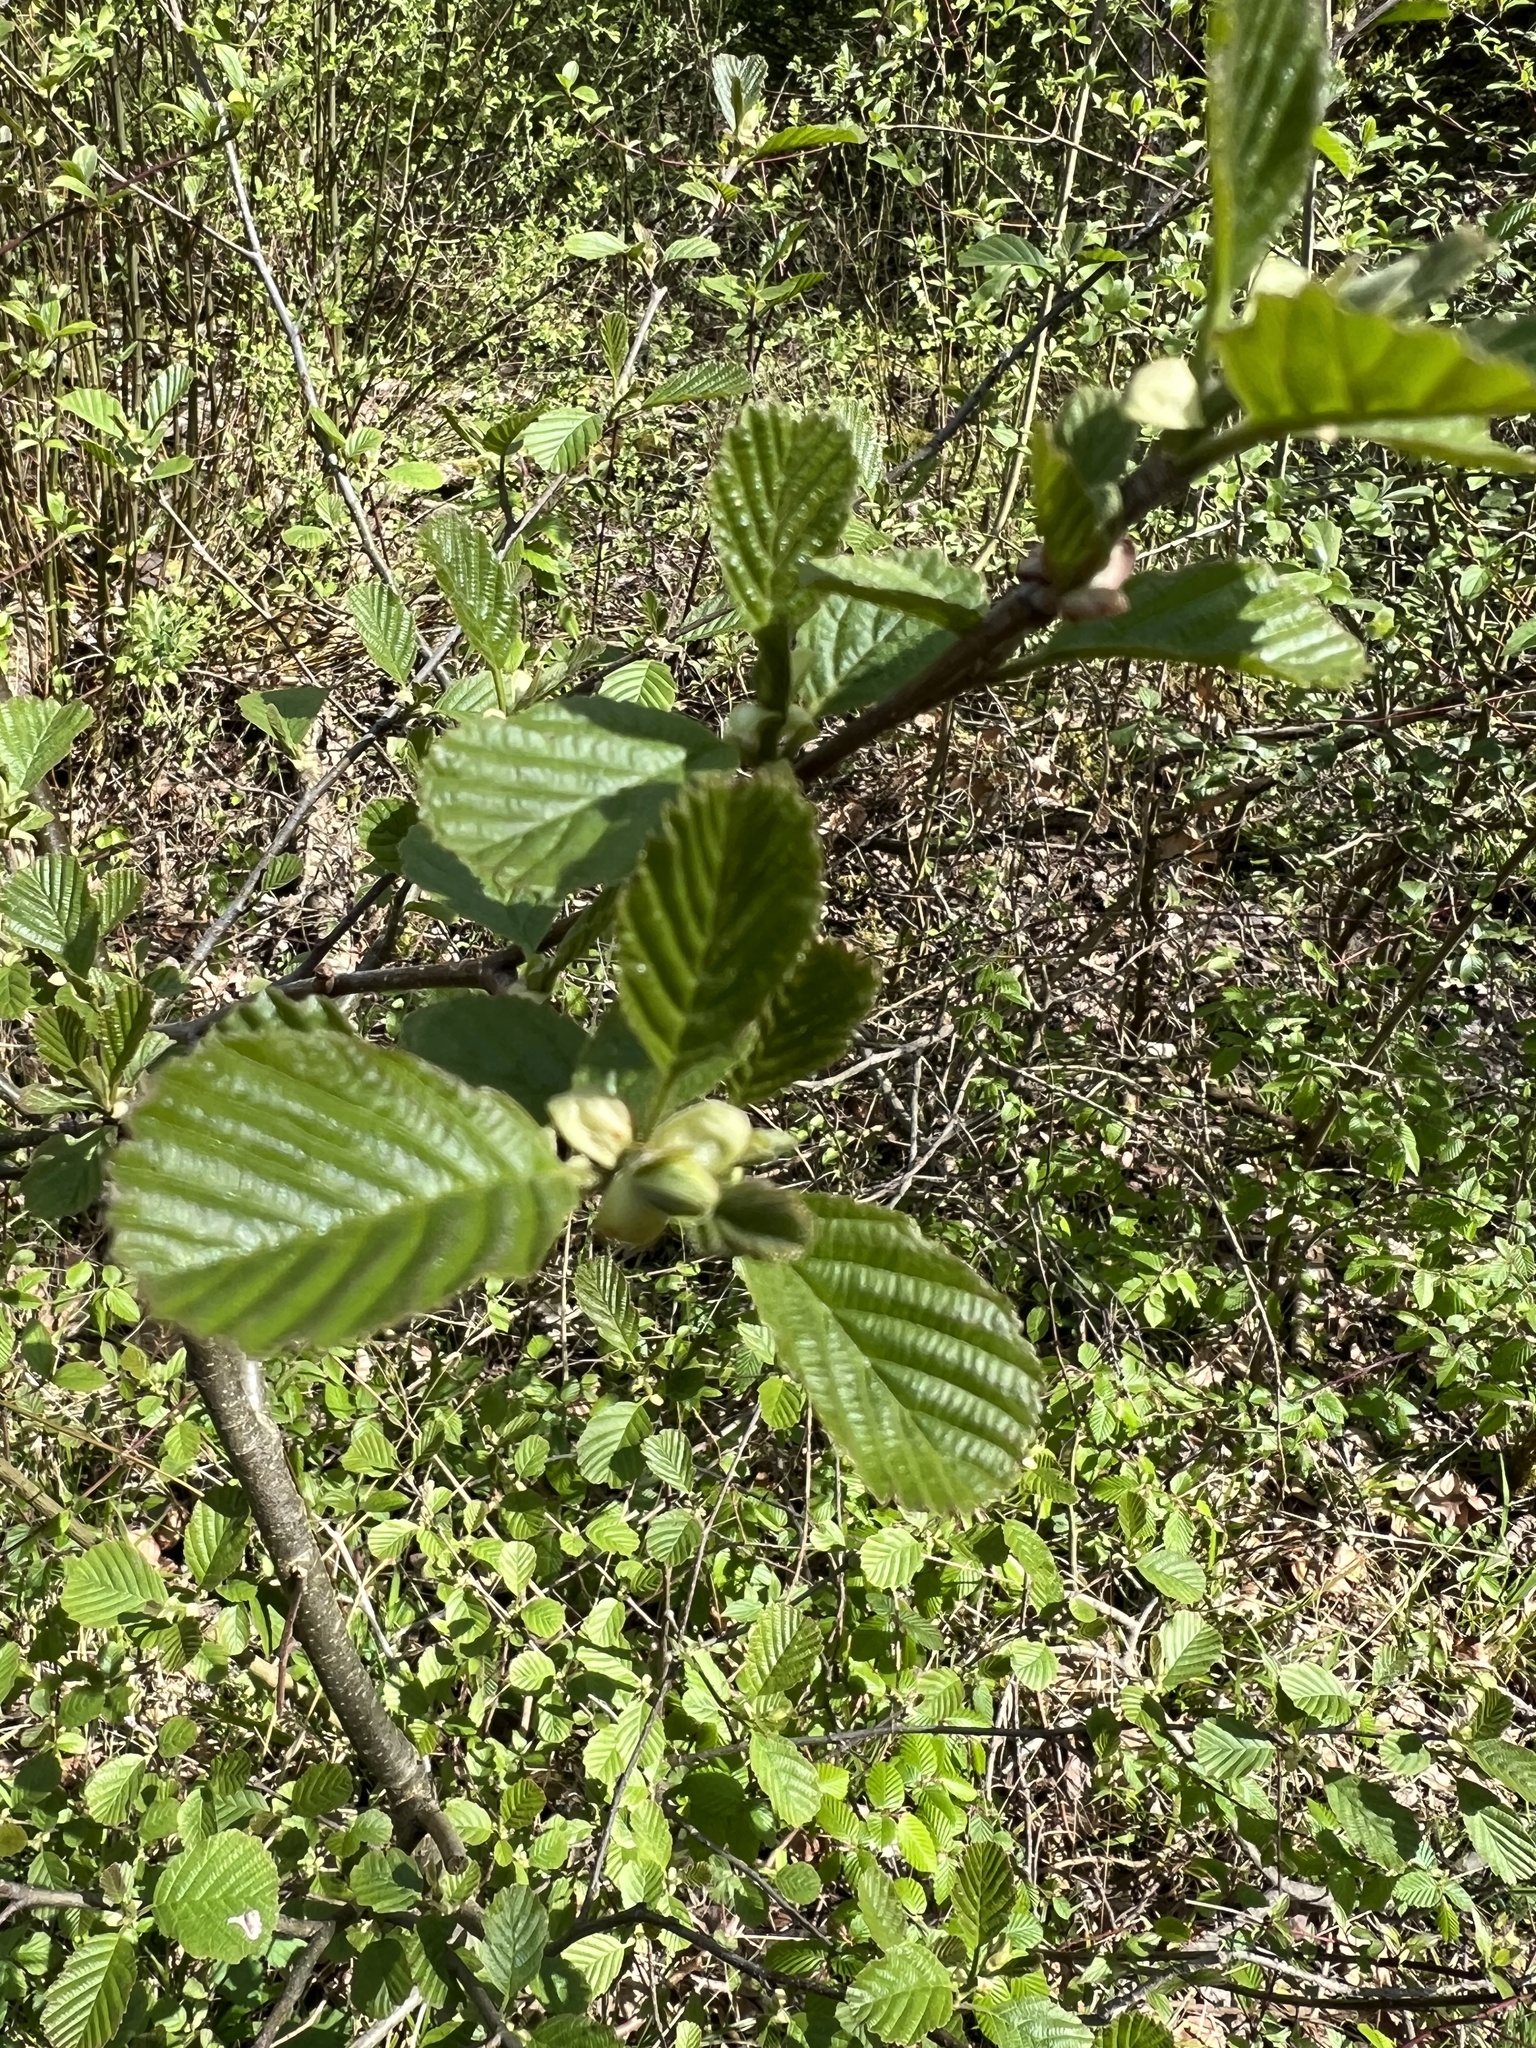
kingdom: Plantae
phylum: Tracheophyta
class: Magnoliopsida
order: Fagales
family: Betulaceae
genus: Alnus
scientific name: Alnus glutinosa
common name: Black alder
